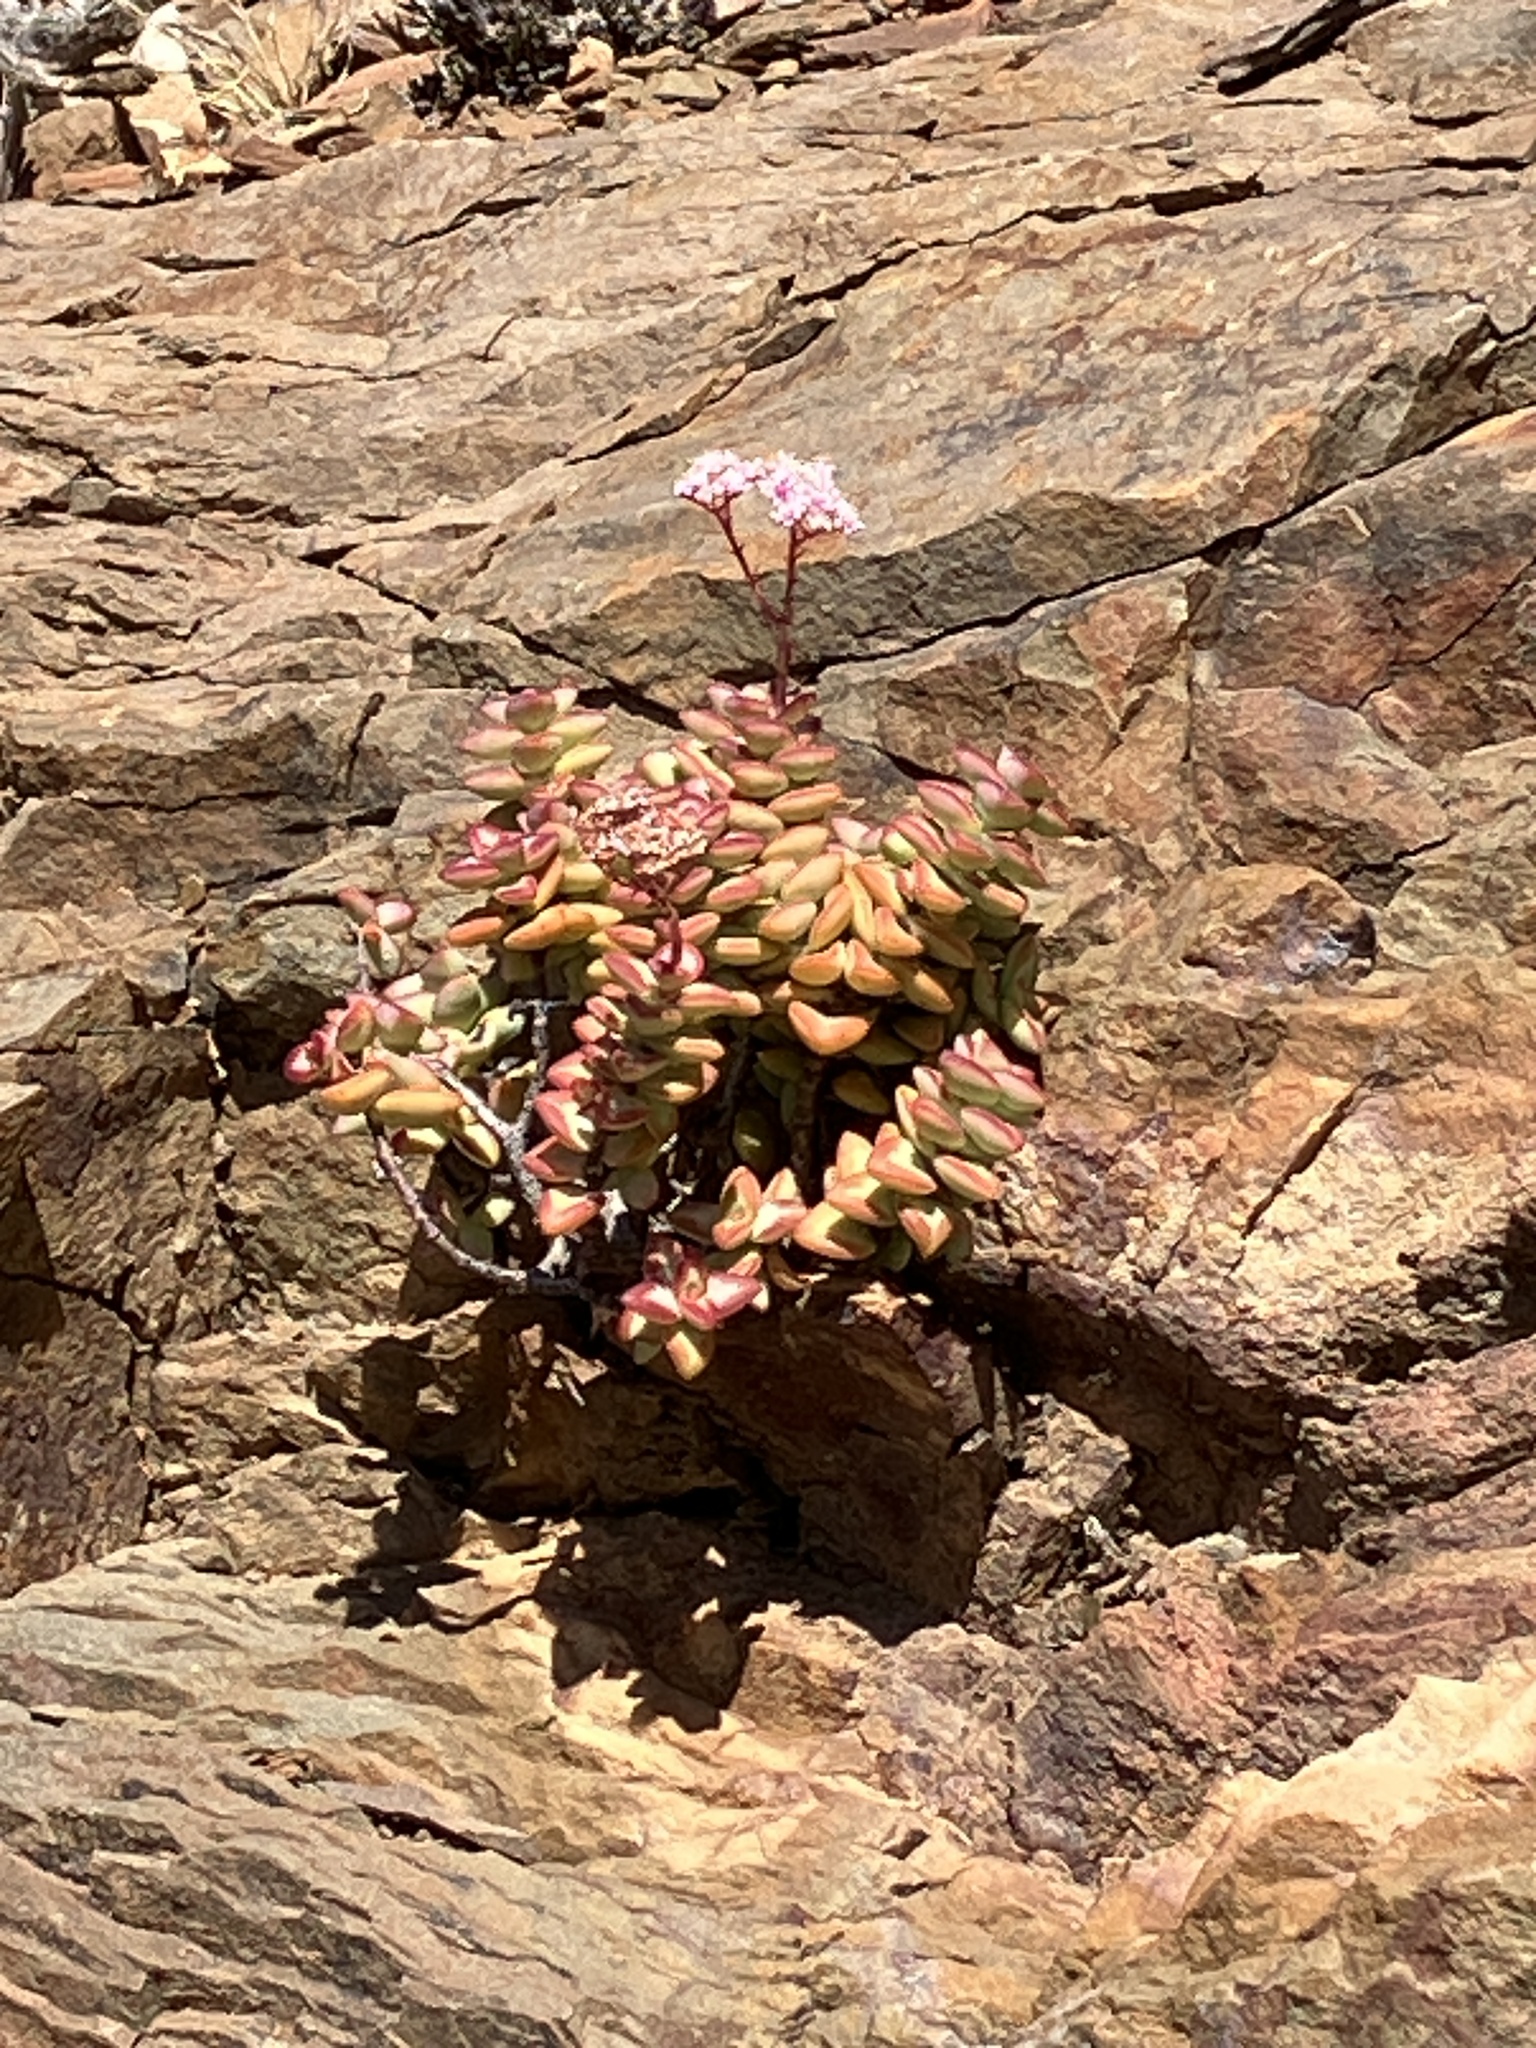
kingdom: Plantae
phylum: Tracheophyta
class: Magnoliopsida
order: Saxifragales
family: Crassulaceae
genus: Crassula
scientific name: Crassula rupestris
